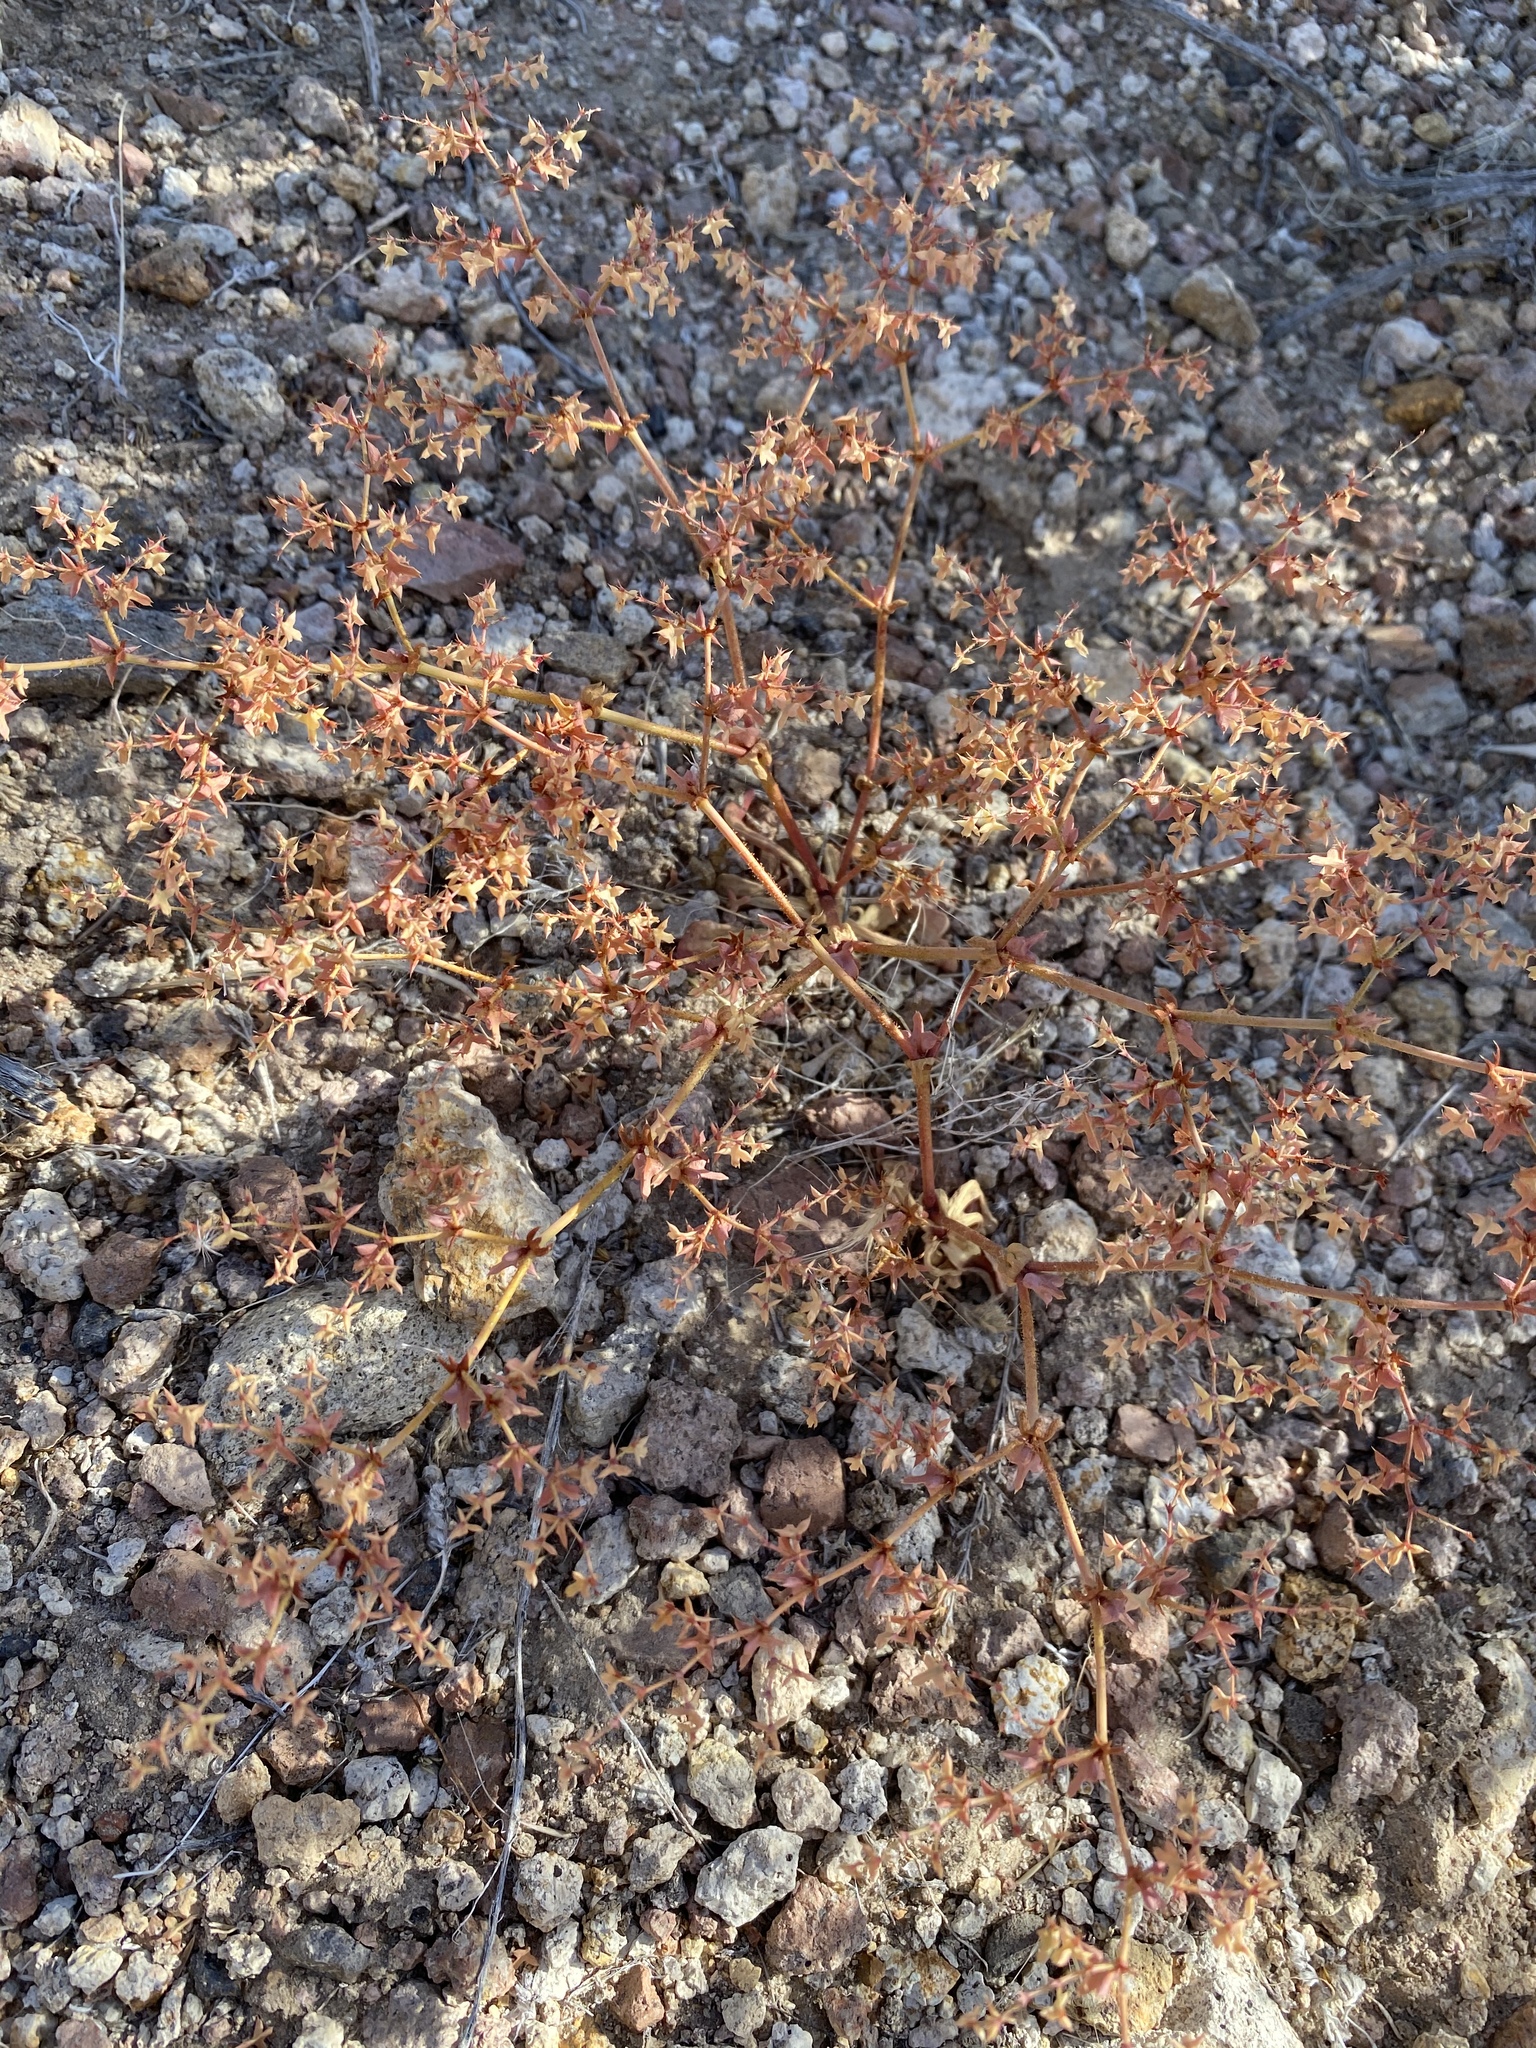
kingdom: Plantae
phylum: Tracheophyta
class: Magnoliopsida
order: Caryophyllales
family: Polygonaceae
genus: Centrostegia
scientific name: Centrostegia thurberi
